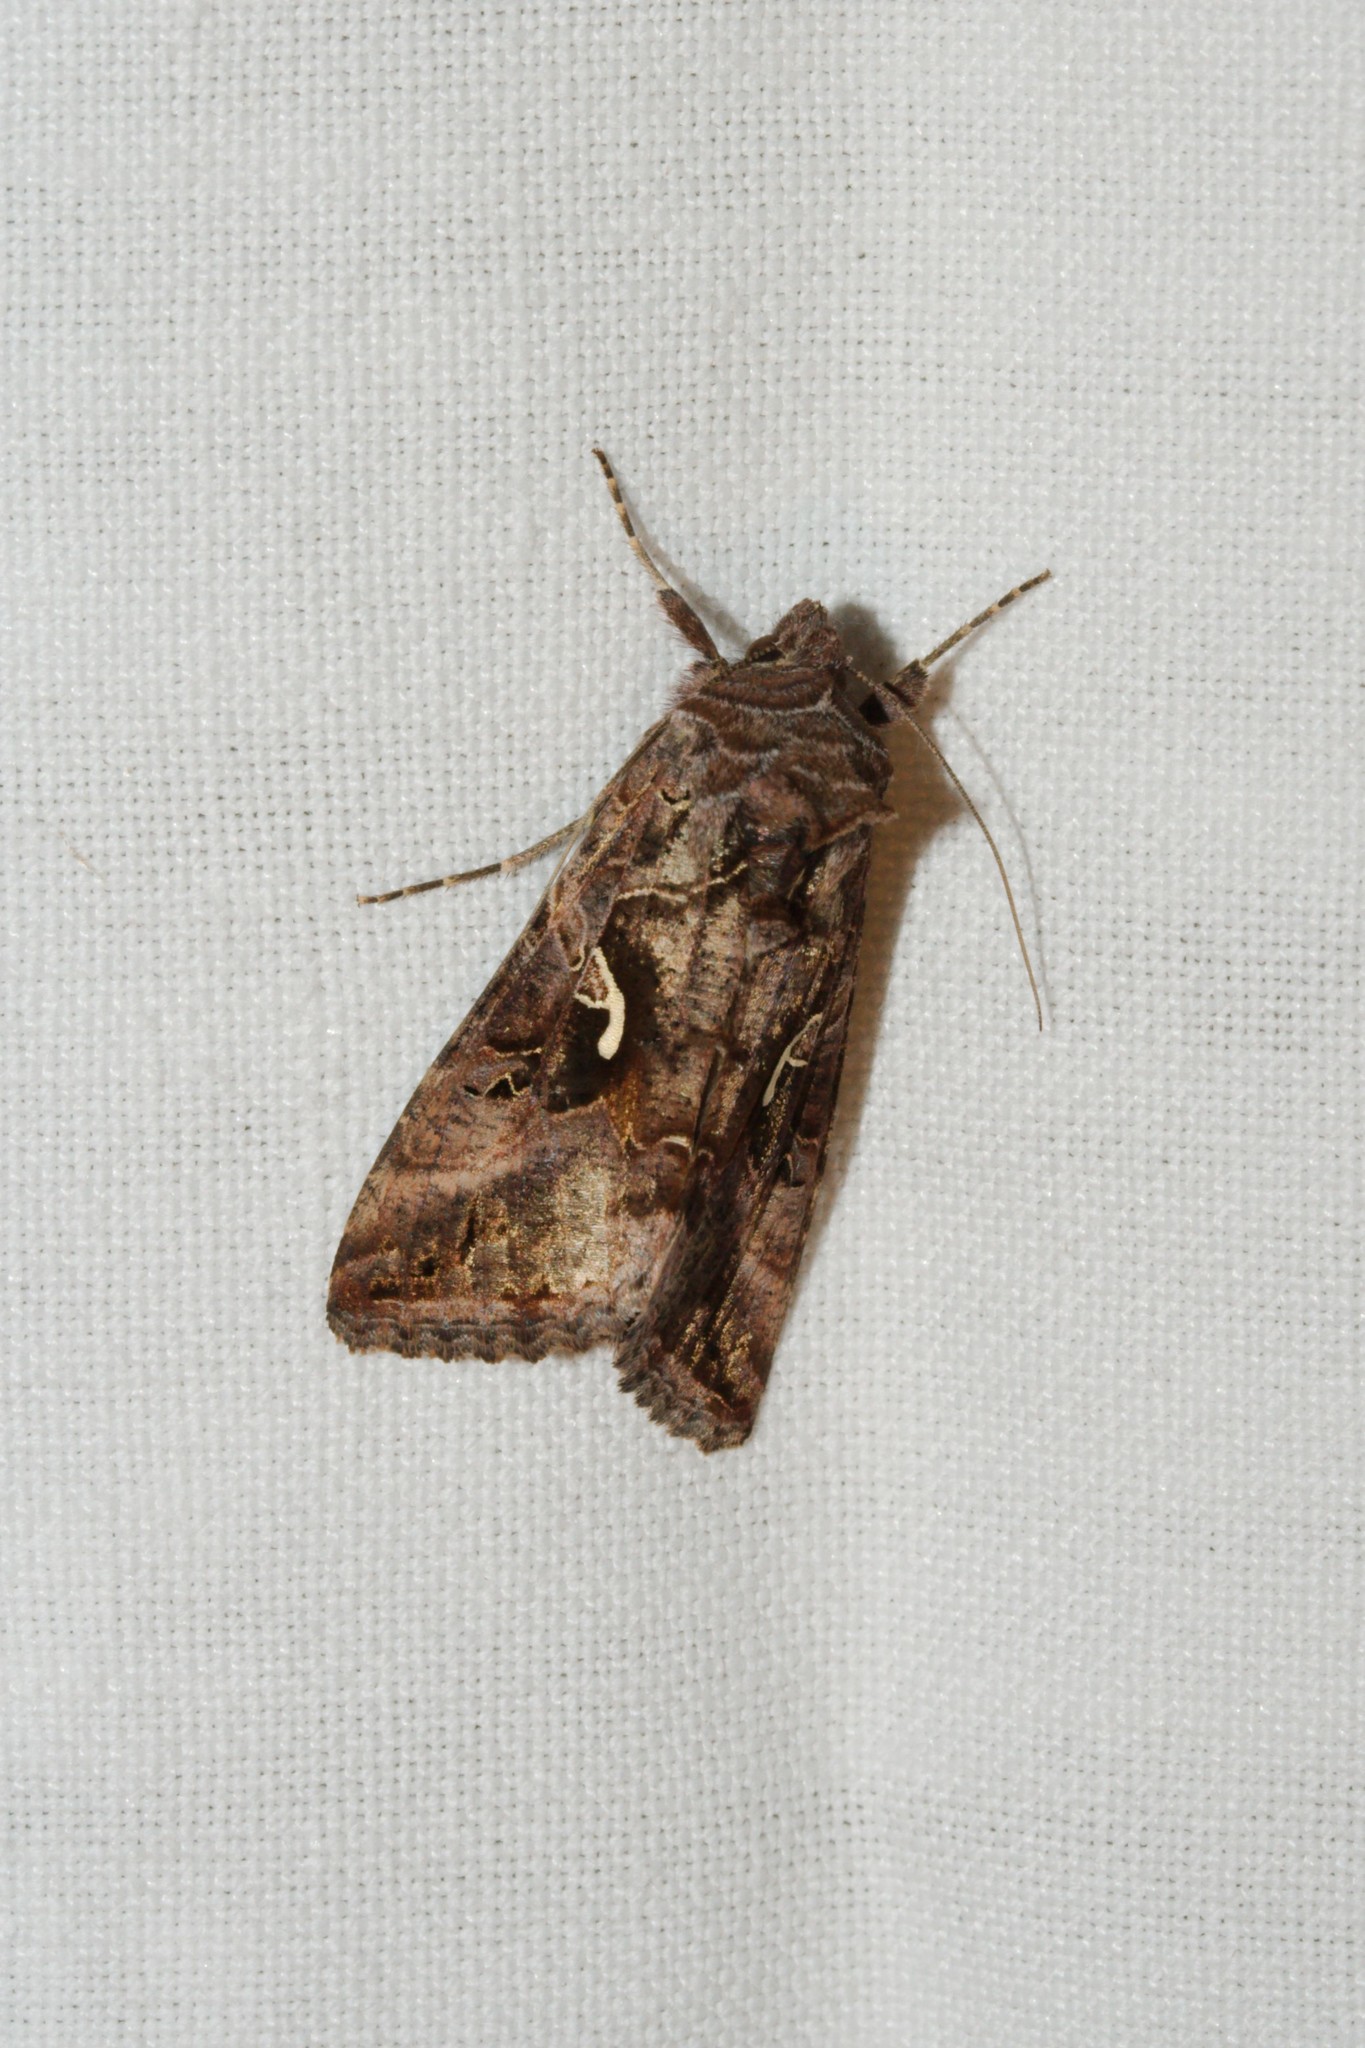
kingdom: Animalia
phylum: Arthropoda
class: Insecta
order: Lepidoptera
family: Noctuidae
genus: Autographa
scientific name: Autographa gamma
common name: Silver y
